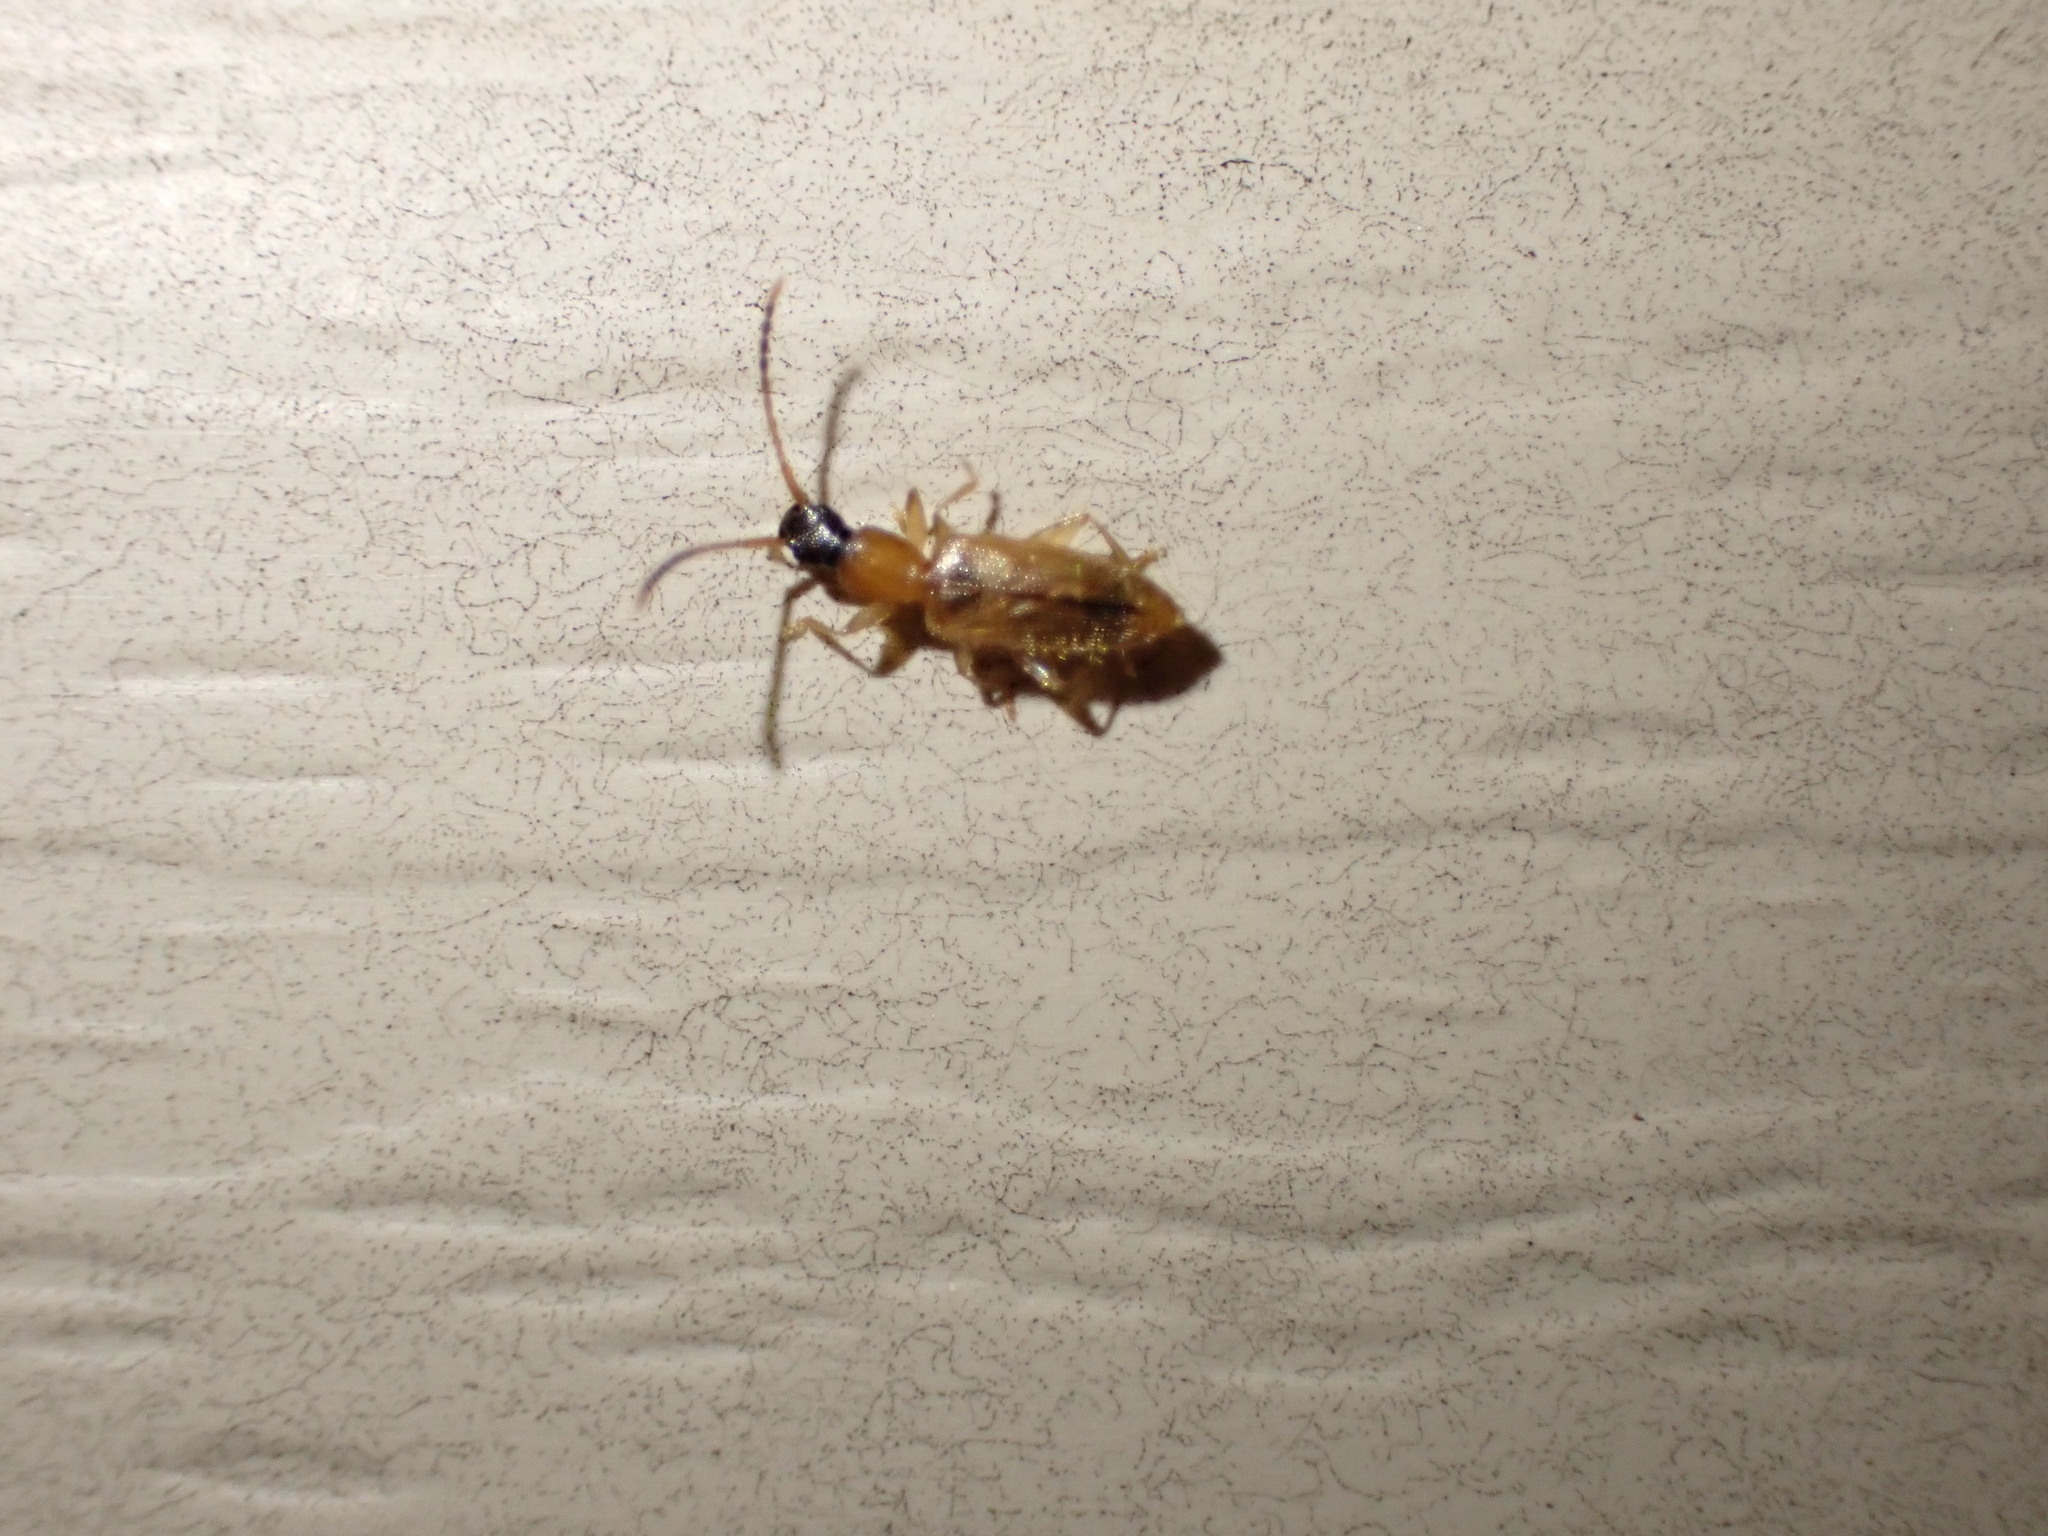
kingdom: Animalia
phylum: Arthropoda
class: Insecta
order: Coleoptera
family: Silvanidae
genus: Telephanus
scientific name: Telephanus velox
